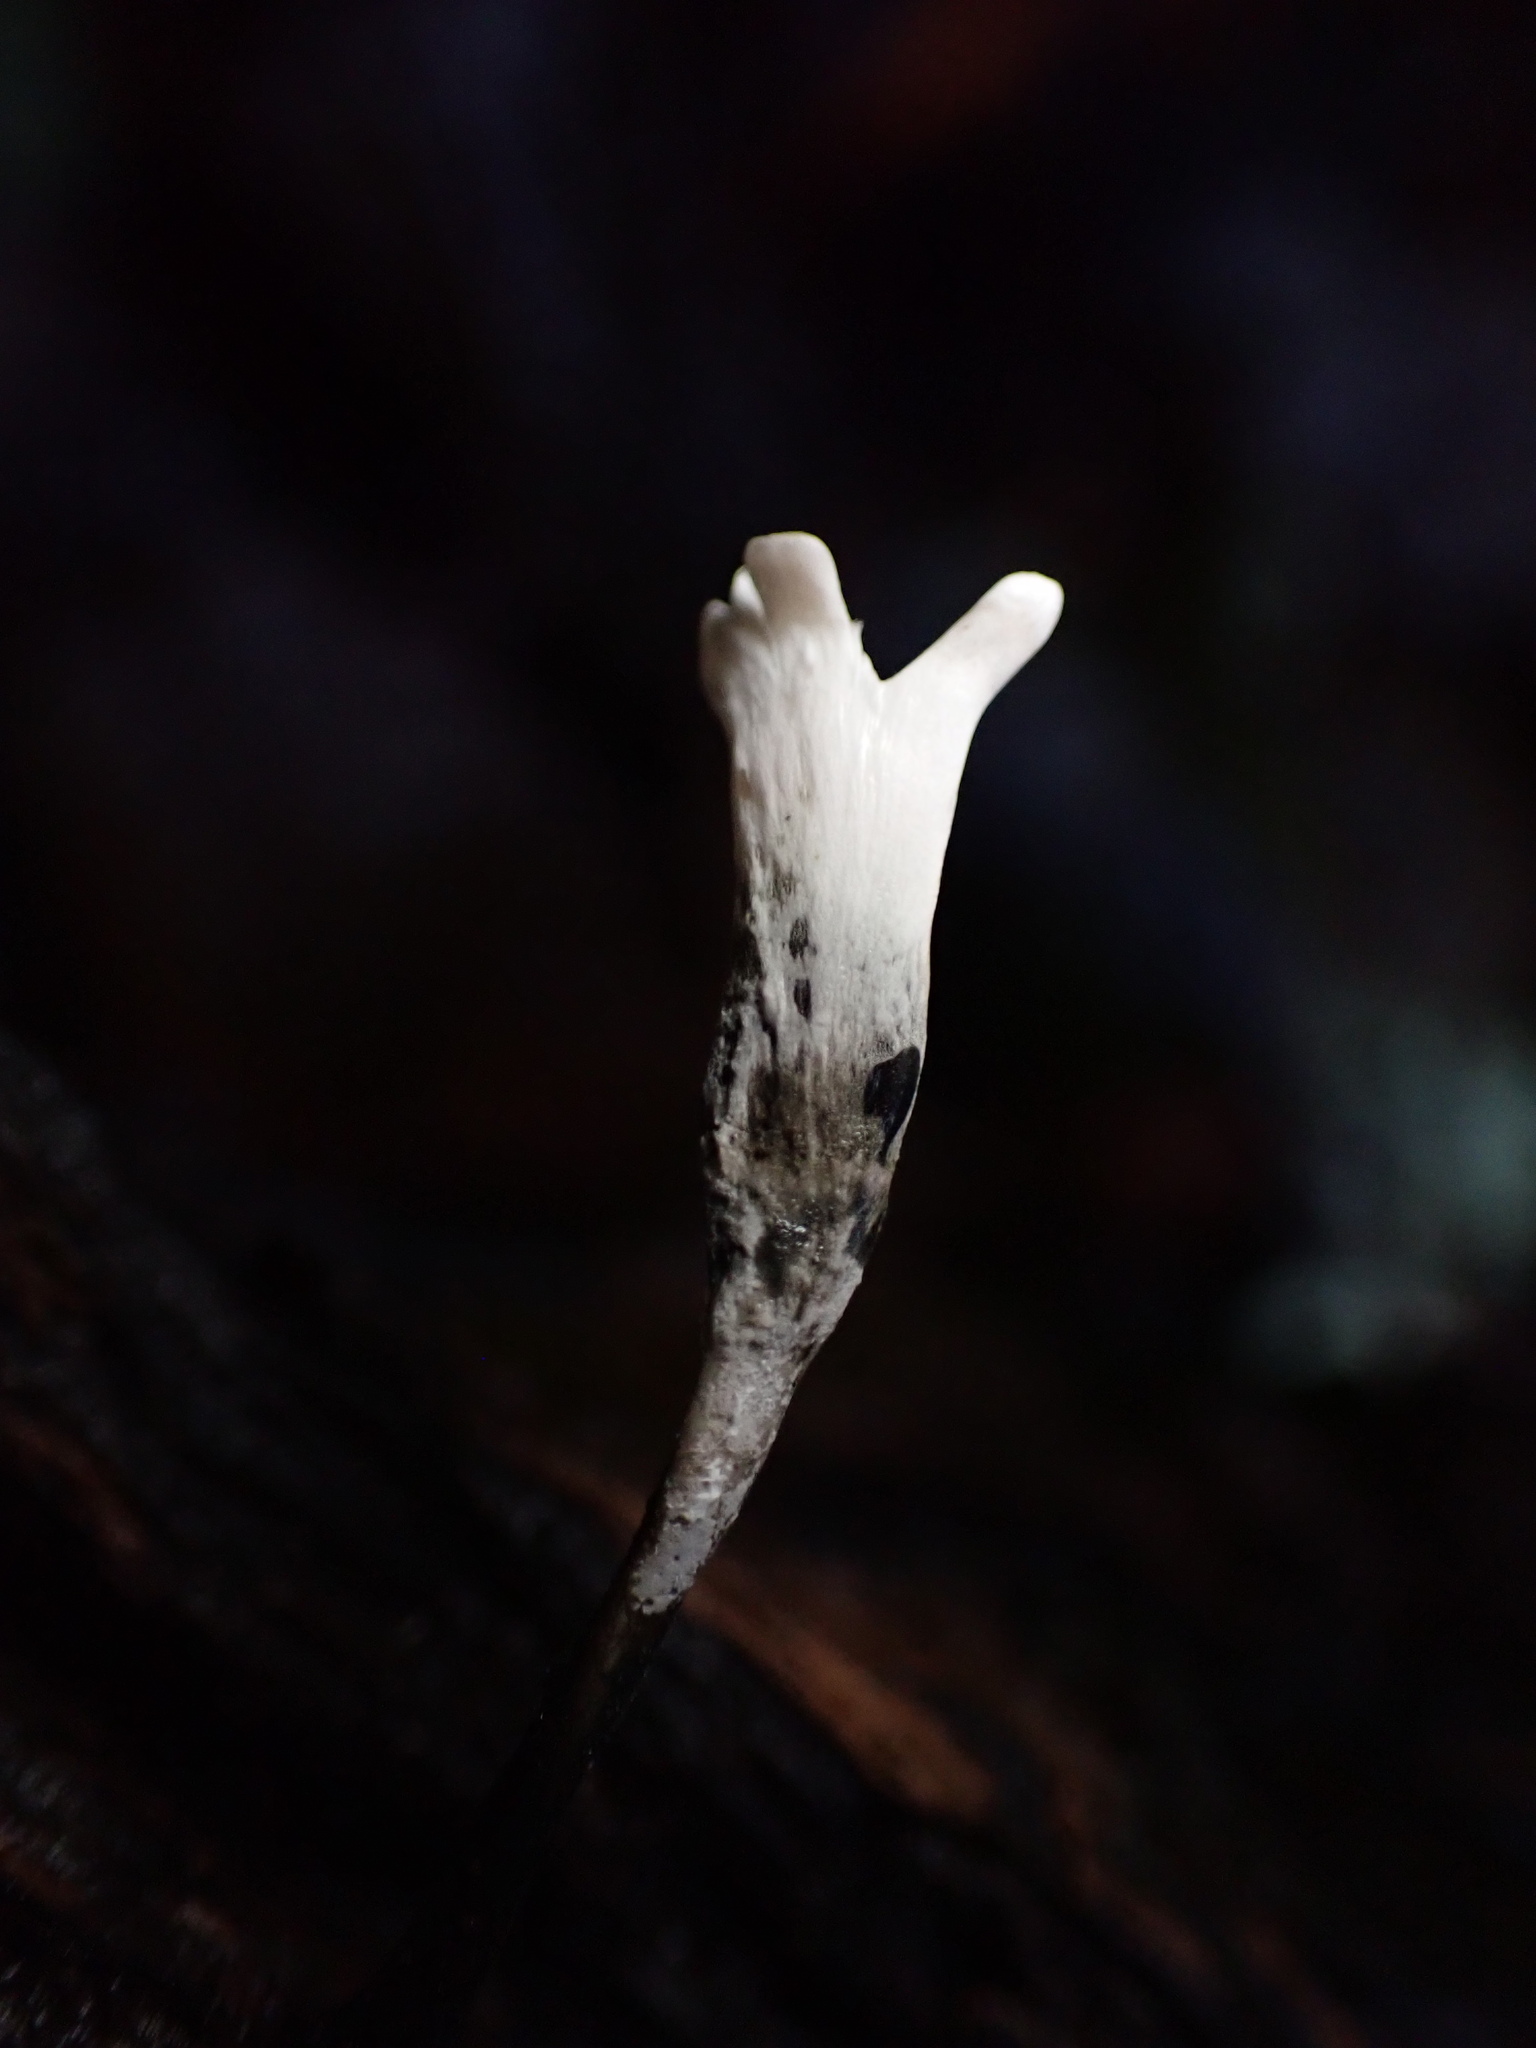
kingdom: Fungi
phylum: Ascomycota
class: Sordariomycetes
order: Xylariales
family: Xylariaceae
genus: Xylaria
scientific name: Xylaria hypoxylon
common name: Candle-snuff fungus
